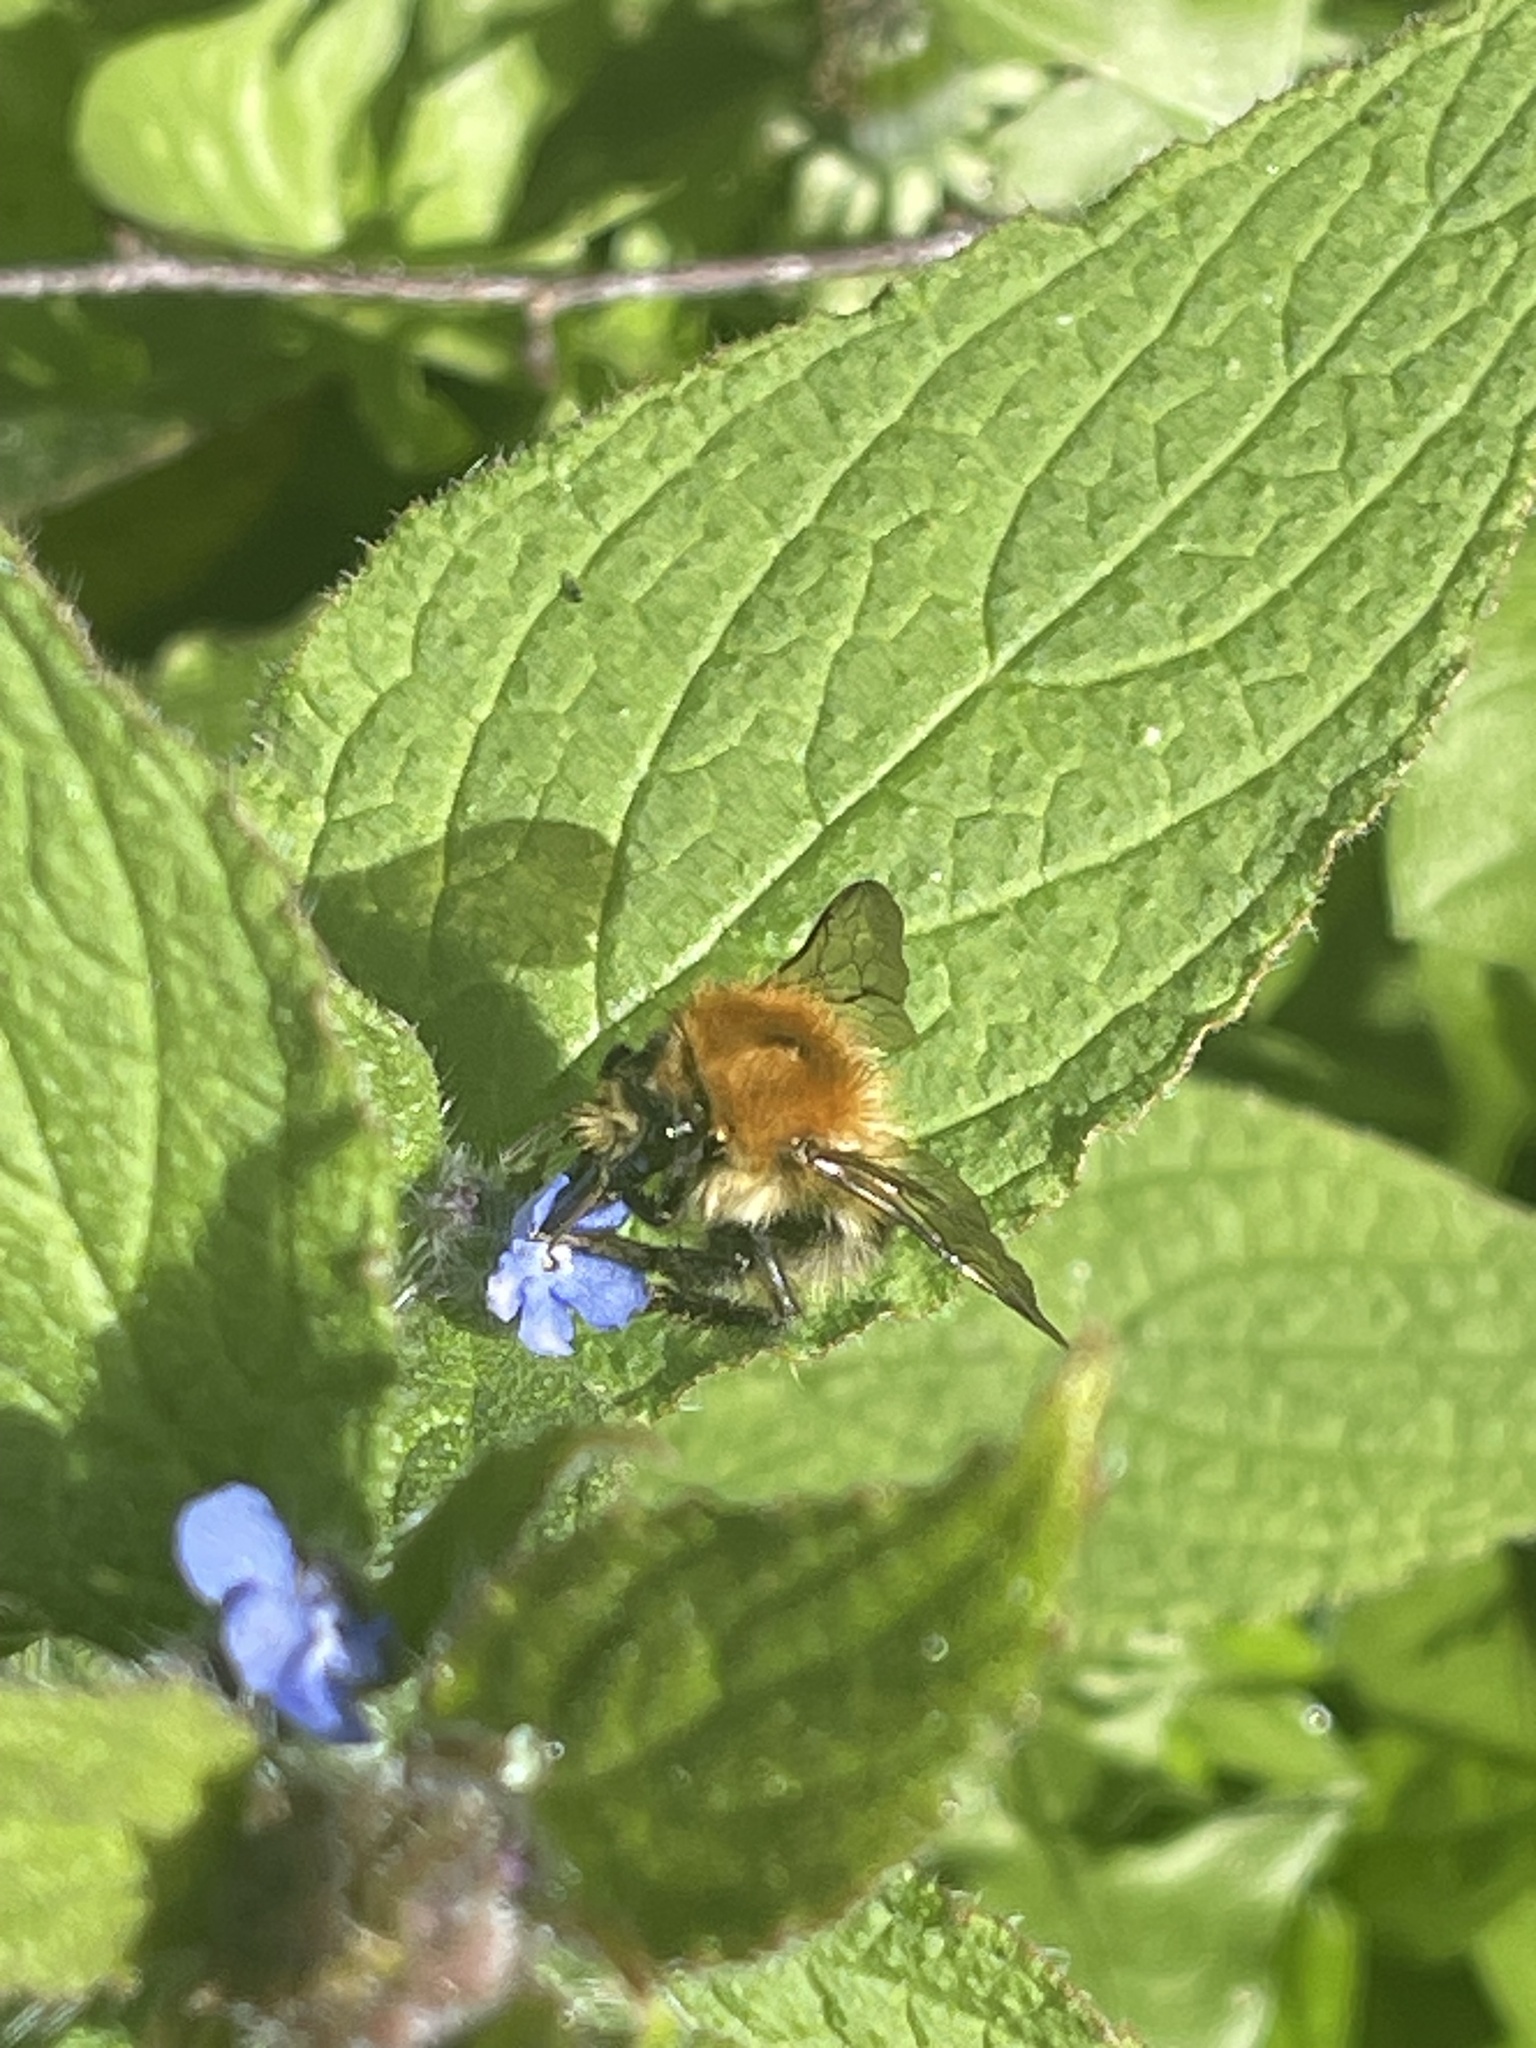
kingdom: Animalia
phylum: Arthropoda
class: Insecta
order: Hymenoptera
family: Apidae
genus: Bombus
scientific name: Bombus pascuorum
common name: Common carder bee
